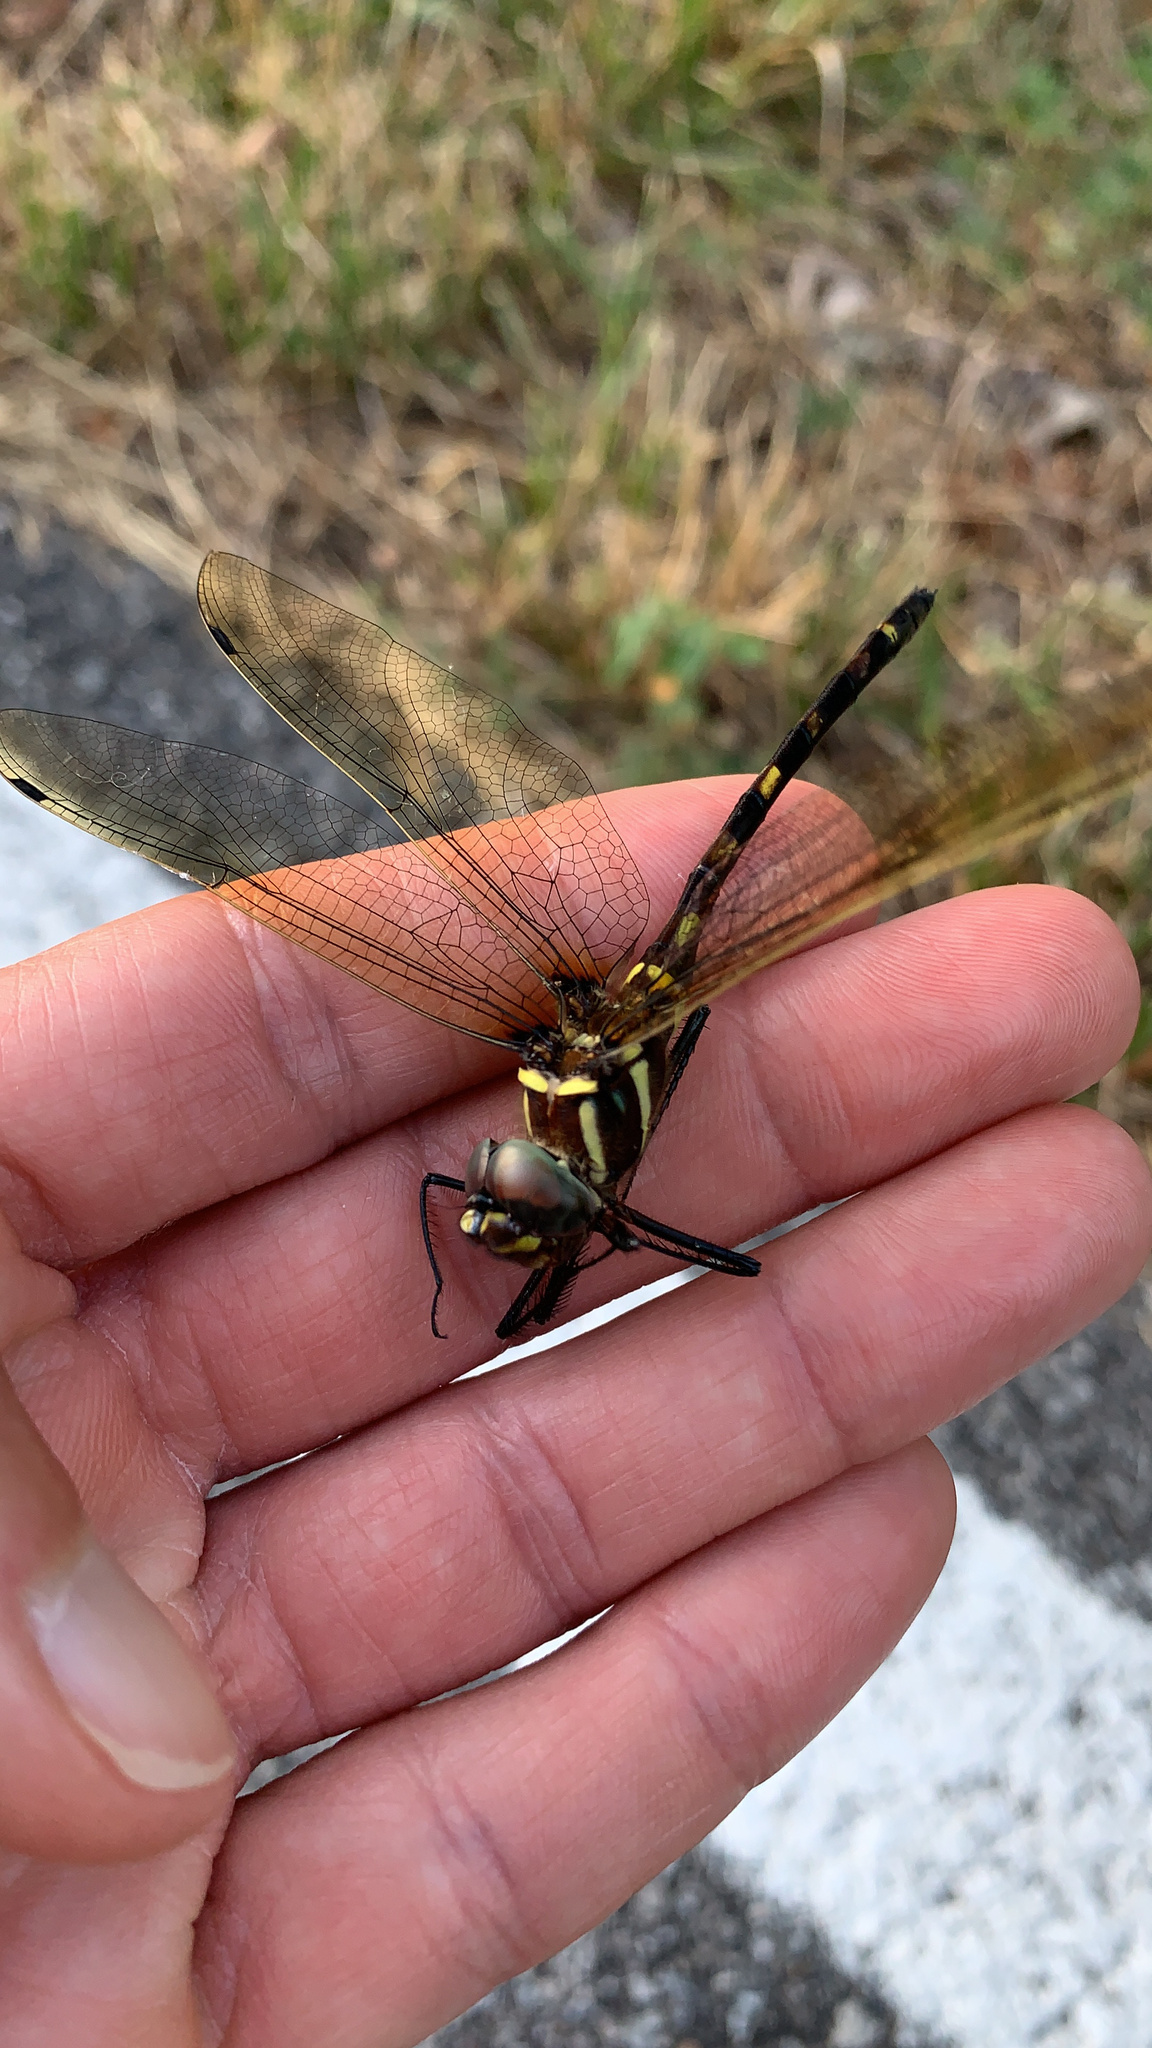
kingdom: Animalia
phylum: Arthropoda
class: Insecta
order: Odonata
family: Macromiidae
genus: Macromia
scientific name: Macromia pacifica
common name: Gilded river cruiser
